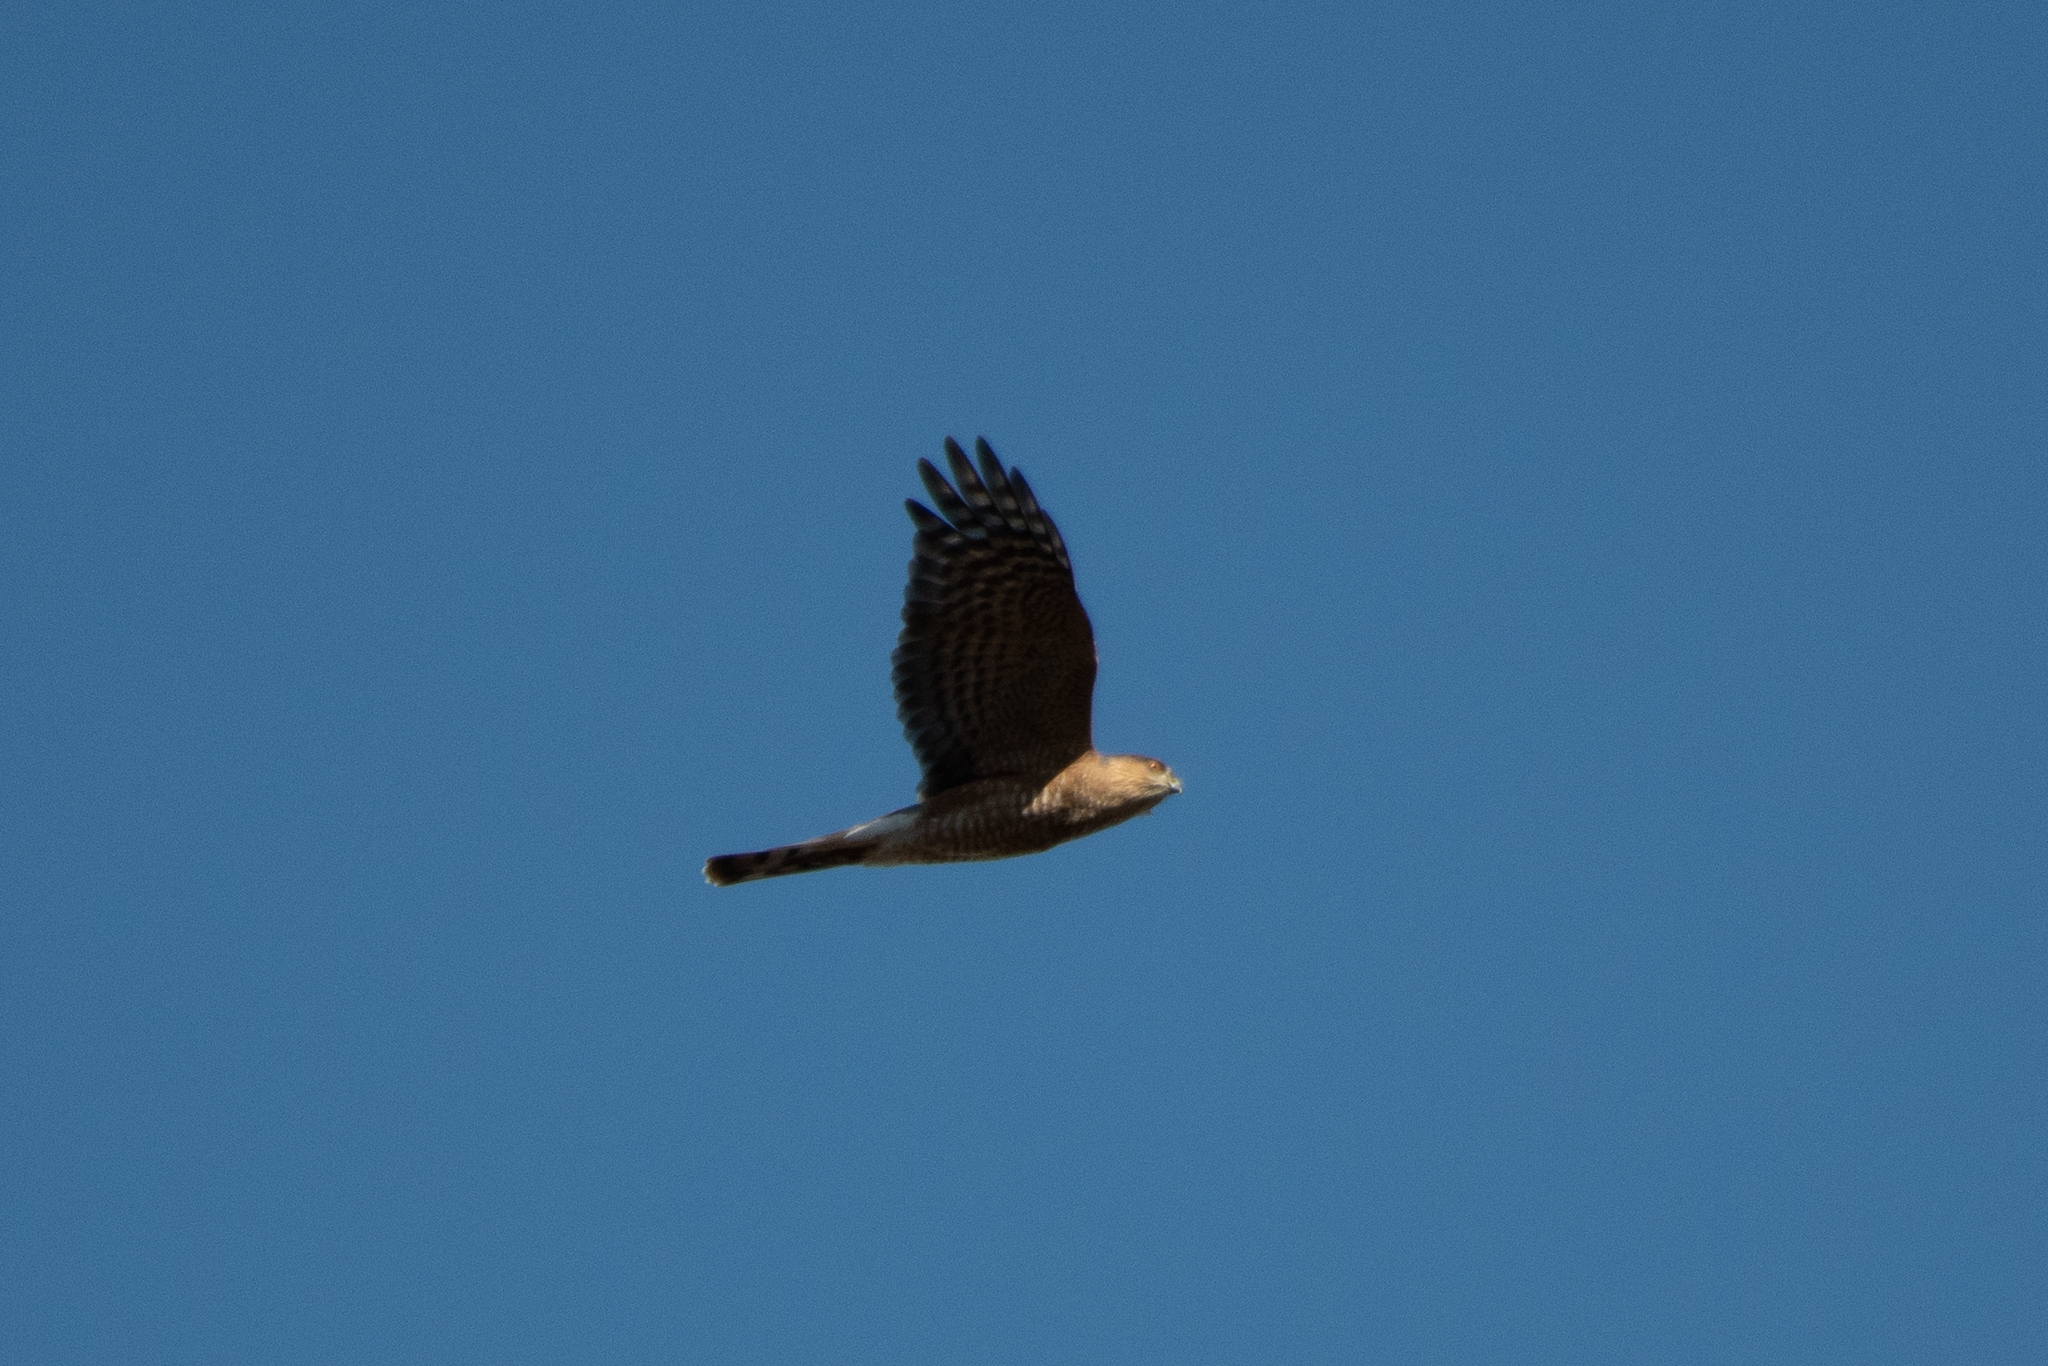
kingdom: Animalia
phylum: Chordata
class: Aves
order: Accipitriformes
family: Accipitridae
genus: Accipiter
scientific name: Accipiter striatus
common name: Sharp-shinned hawk
